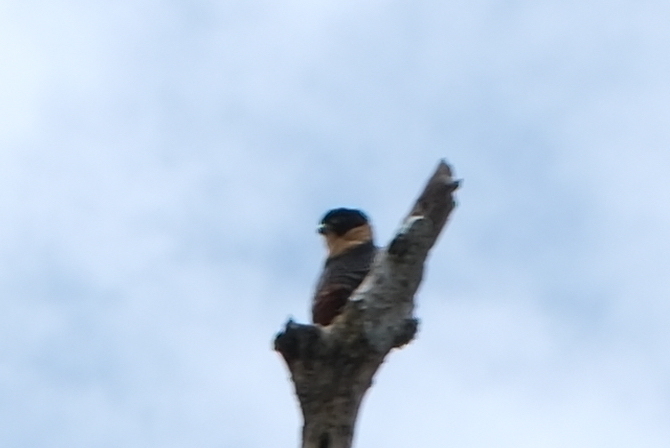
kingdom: Animalia
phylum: Chordata
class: Aves
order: Falconiformes
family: Falconidae
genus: Falco
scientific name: Falco rufigularis
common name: Bat falcon
